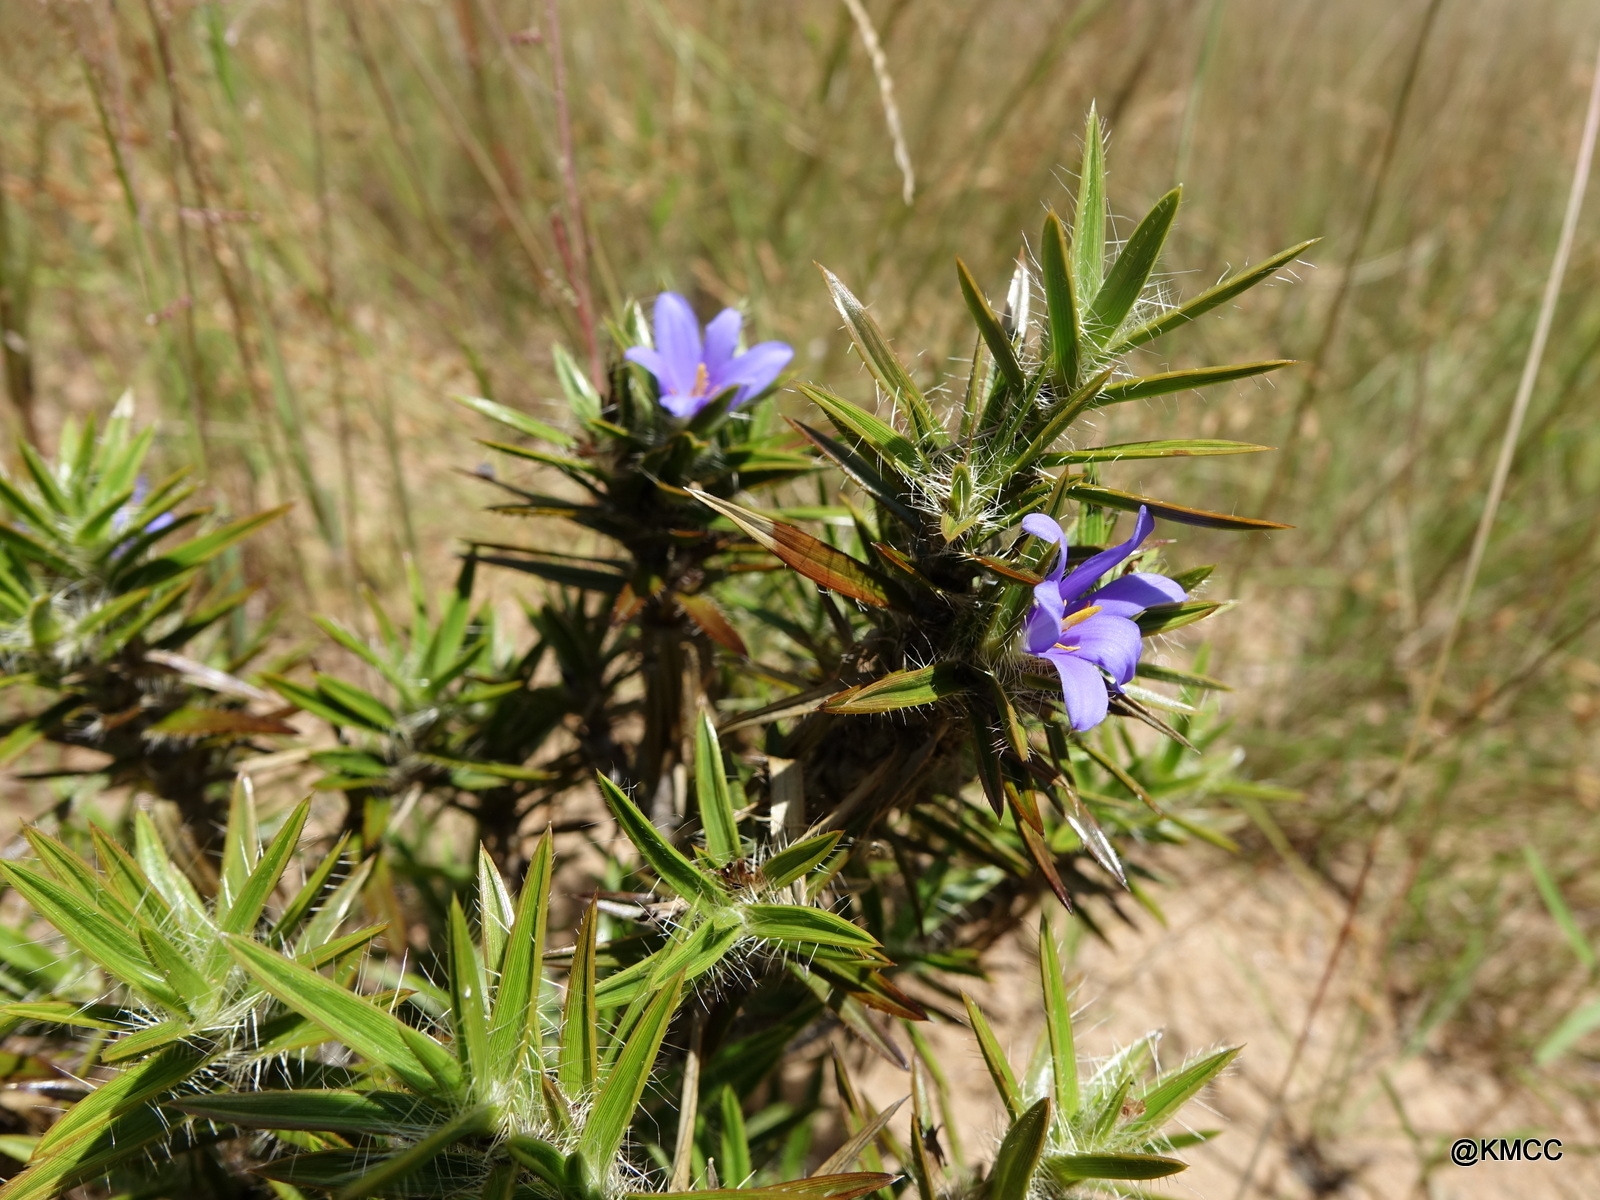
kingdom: Plantae
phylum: Tracheophyta
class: Liliopsida
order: Pandanales
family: Velloziaceae
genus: Xerophyta
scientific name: Xerophyta setosa
